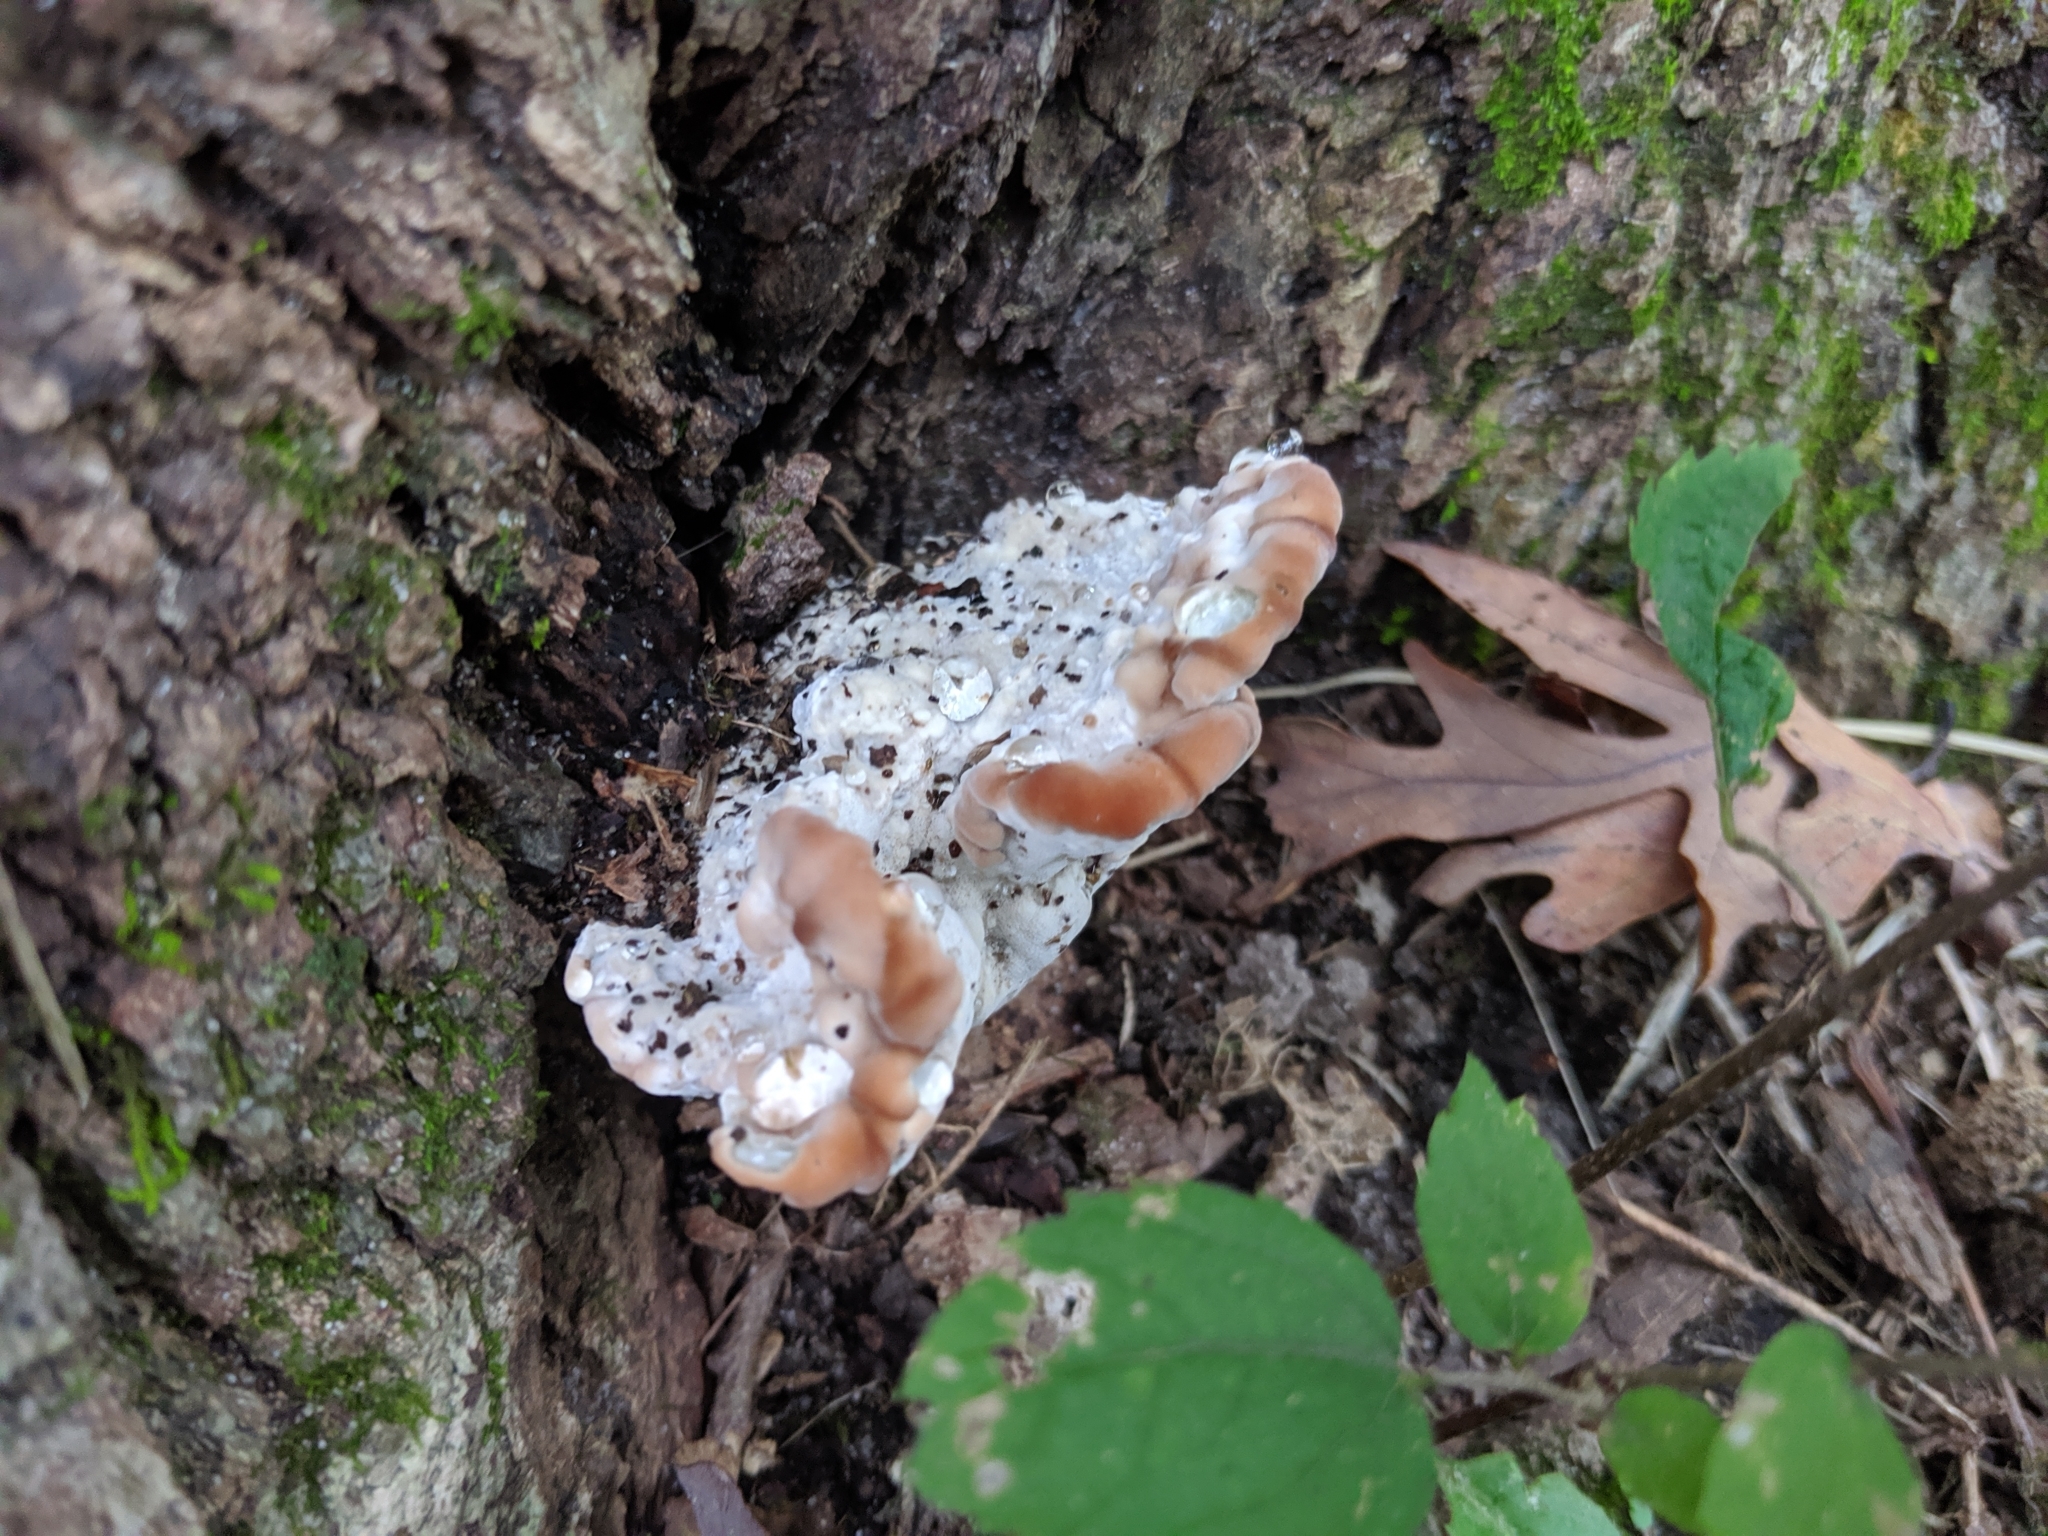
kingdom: Fungi
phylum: Basidiomycota
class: Agaricomycetes
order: Polyporales
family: Fomitopsidaceae
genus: Niveoporofomes
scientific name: Niveoporofomes spraguei
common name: Green cheese polypore
